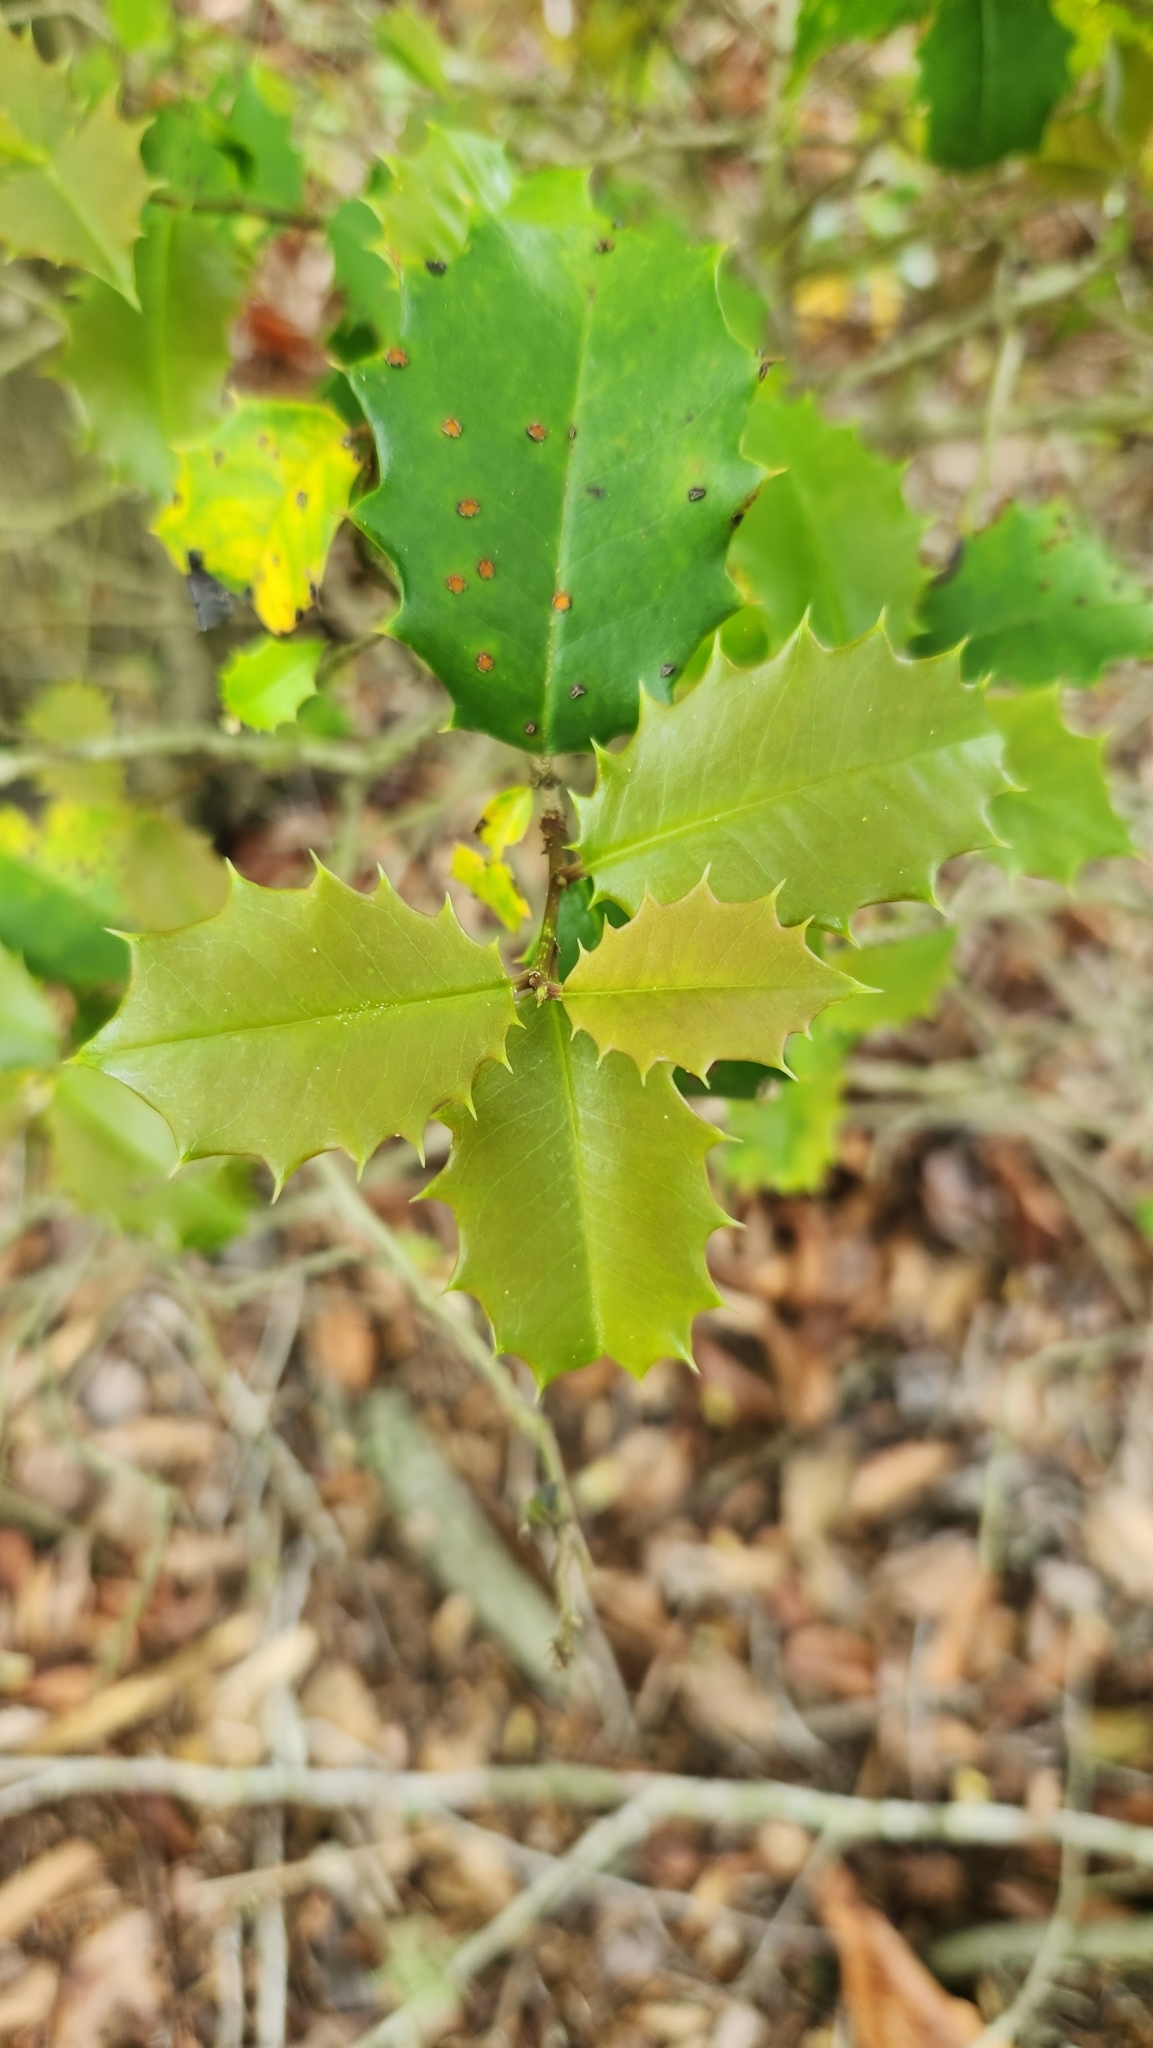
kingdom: Plantae
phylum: Tracheophyta
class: Magnoliopsida
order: Aquifoliales
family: Aquifoliaceae
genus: Ilex
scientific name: Ilex opaca
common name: American holly
